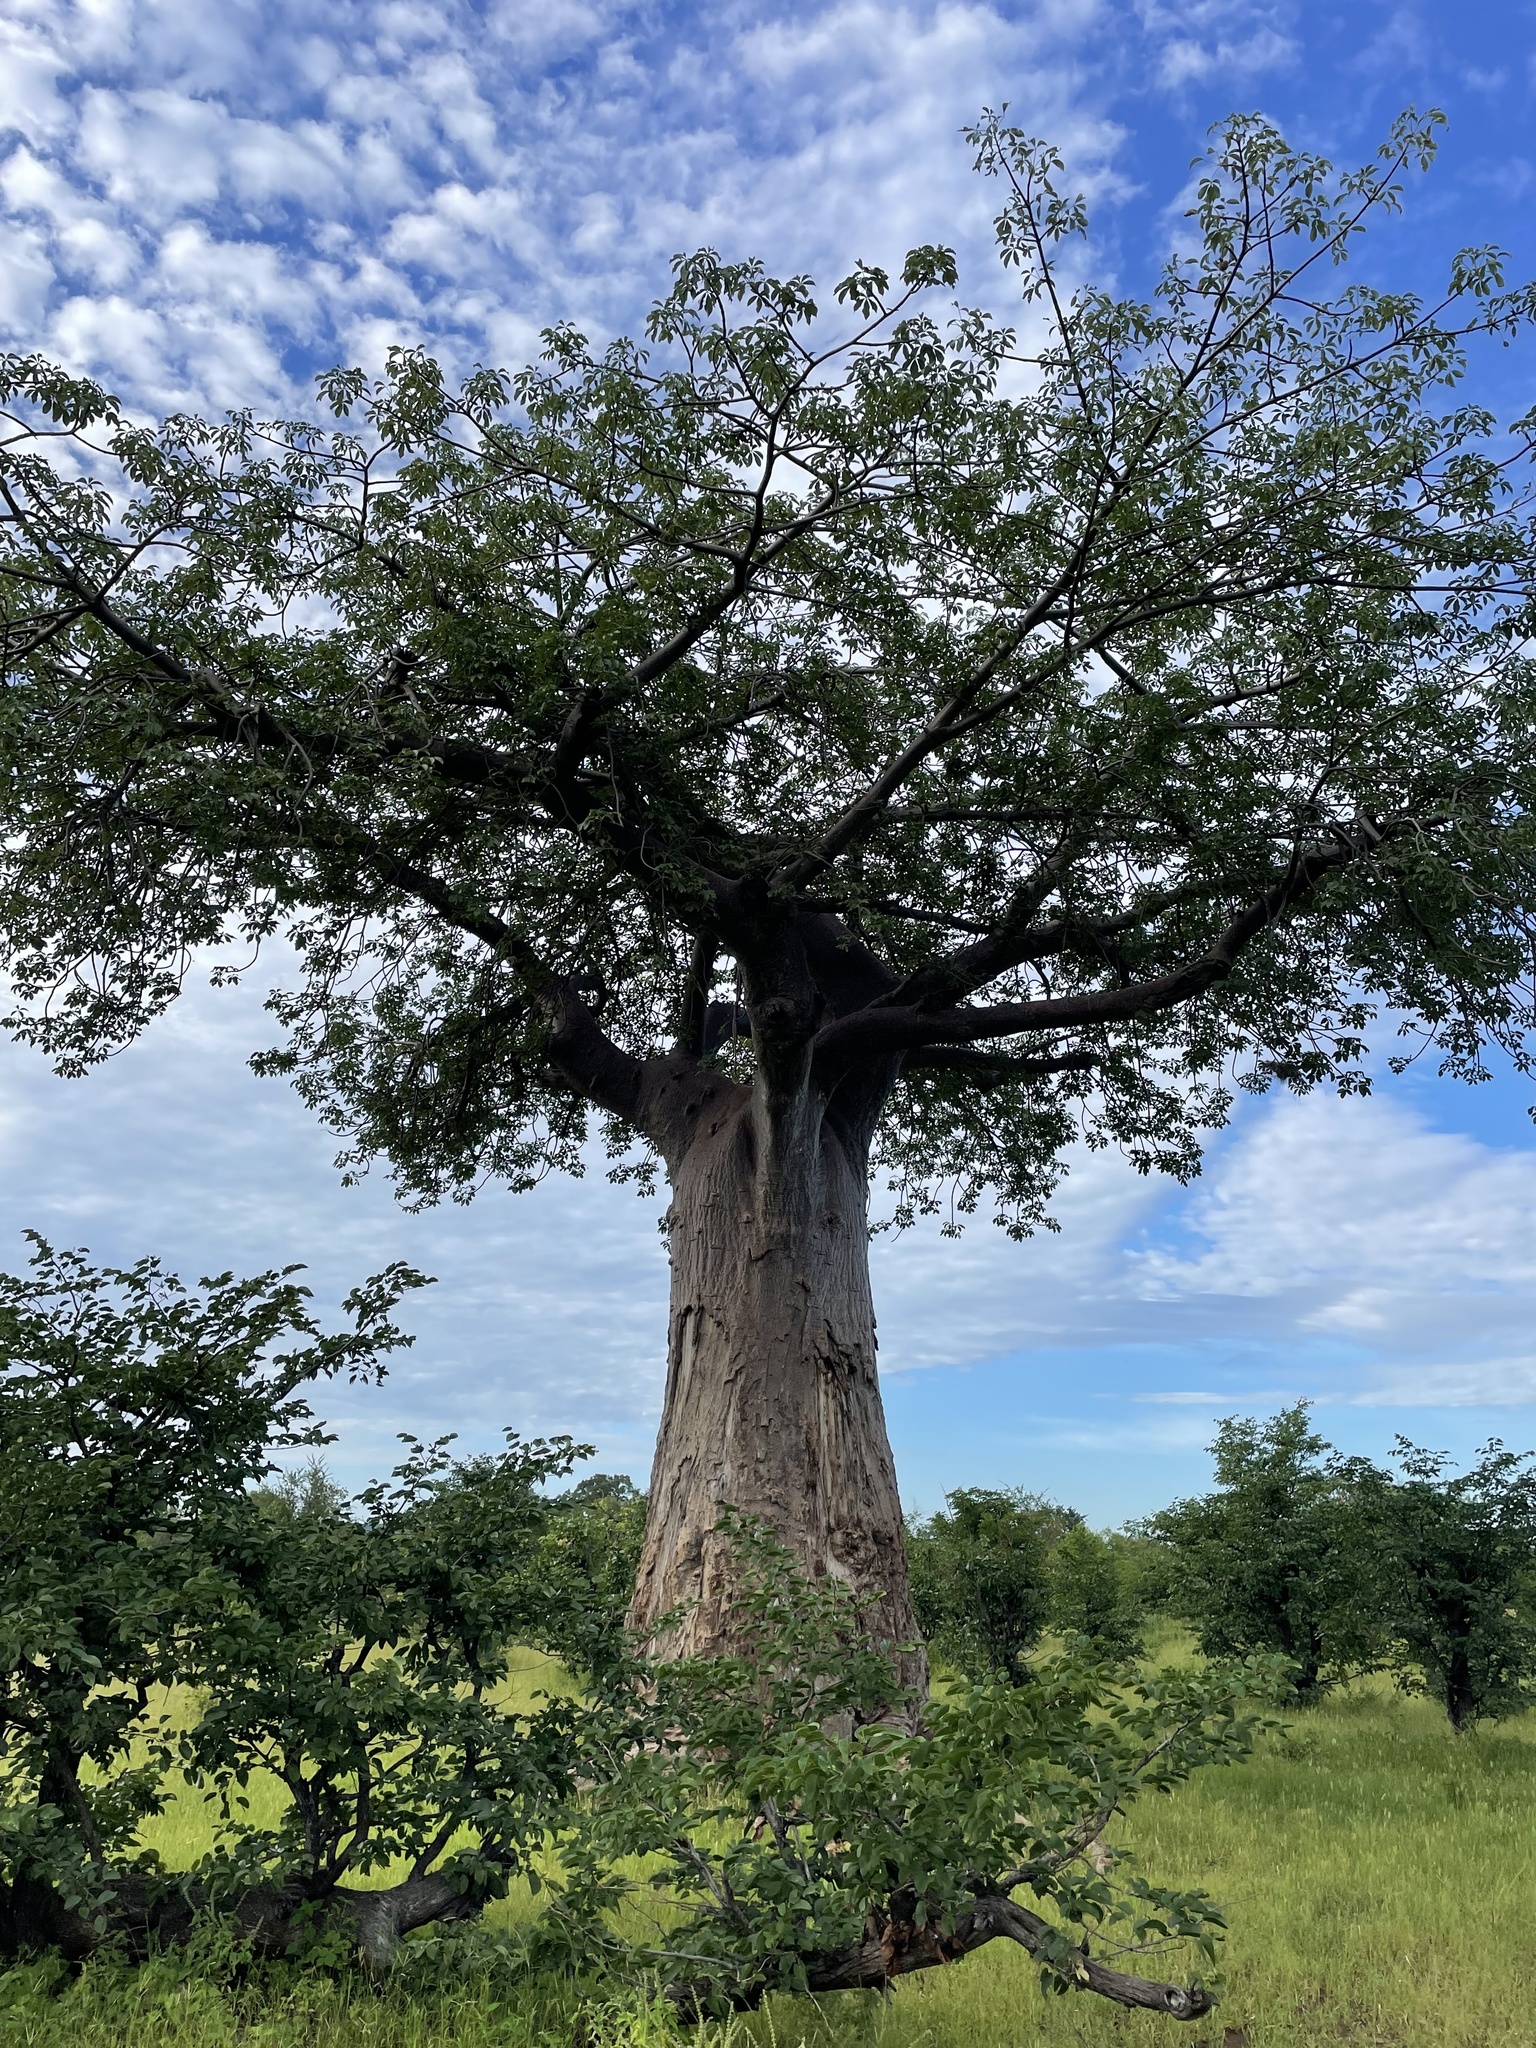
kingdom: Plantae
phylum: Tracheophyta
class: Magnoliopsida
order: Malvales
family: Malvaceae
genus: Adansonia
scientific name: Adansonia digitata
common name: Dead-rat-tree
